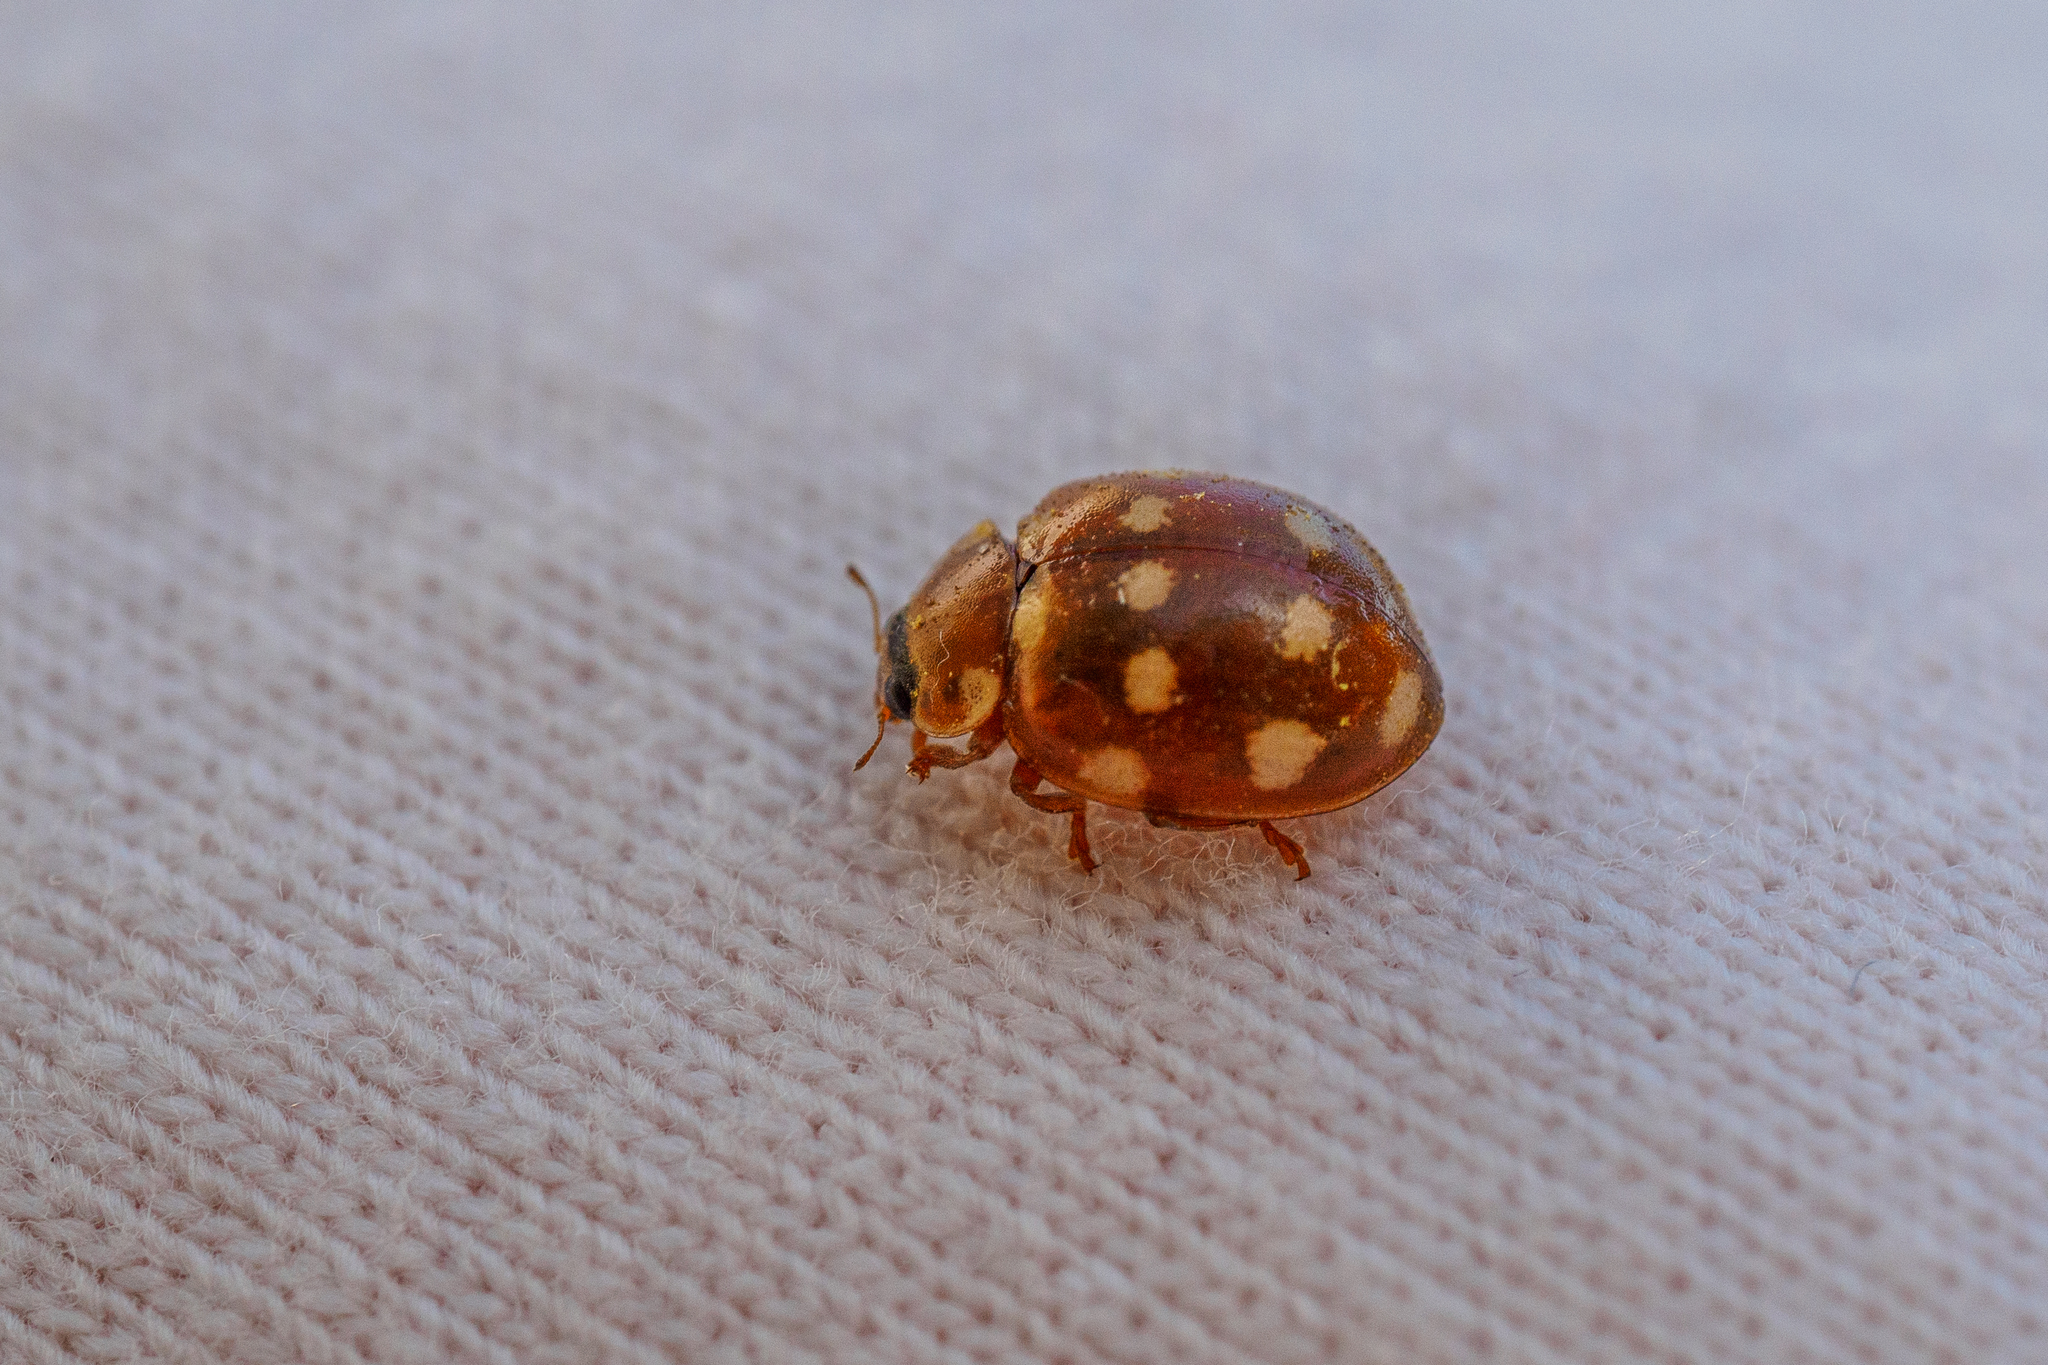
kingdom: Animalia
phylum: Arthropoda
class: Insecta
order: Coleoptera
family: Coccinellidae
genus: Calvia
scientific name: Calvia quatuordecimguttata
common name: Cream-spot ladybird
